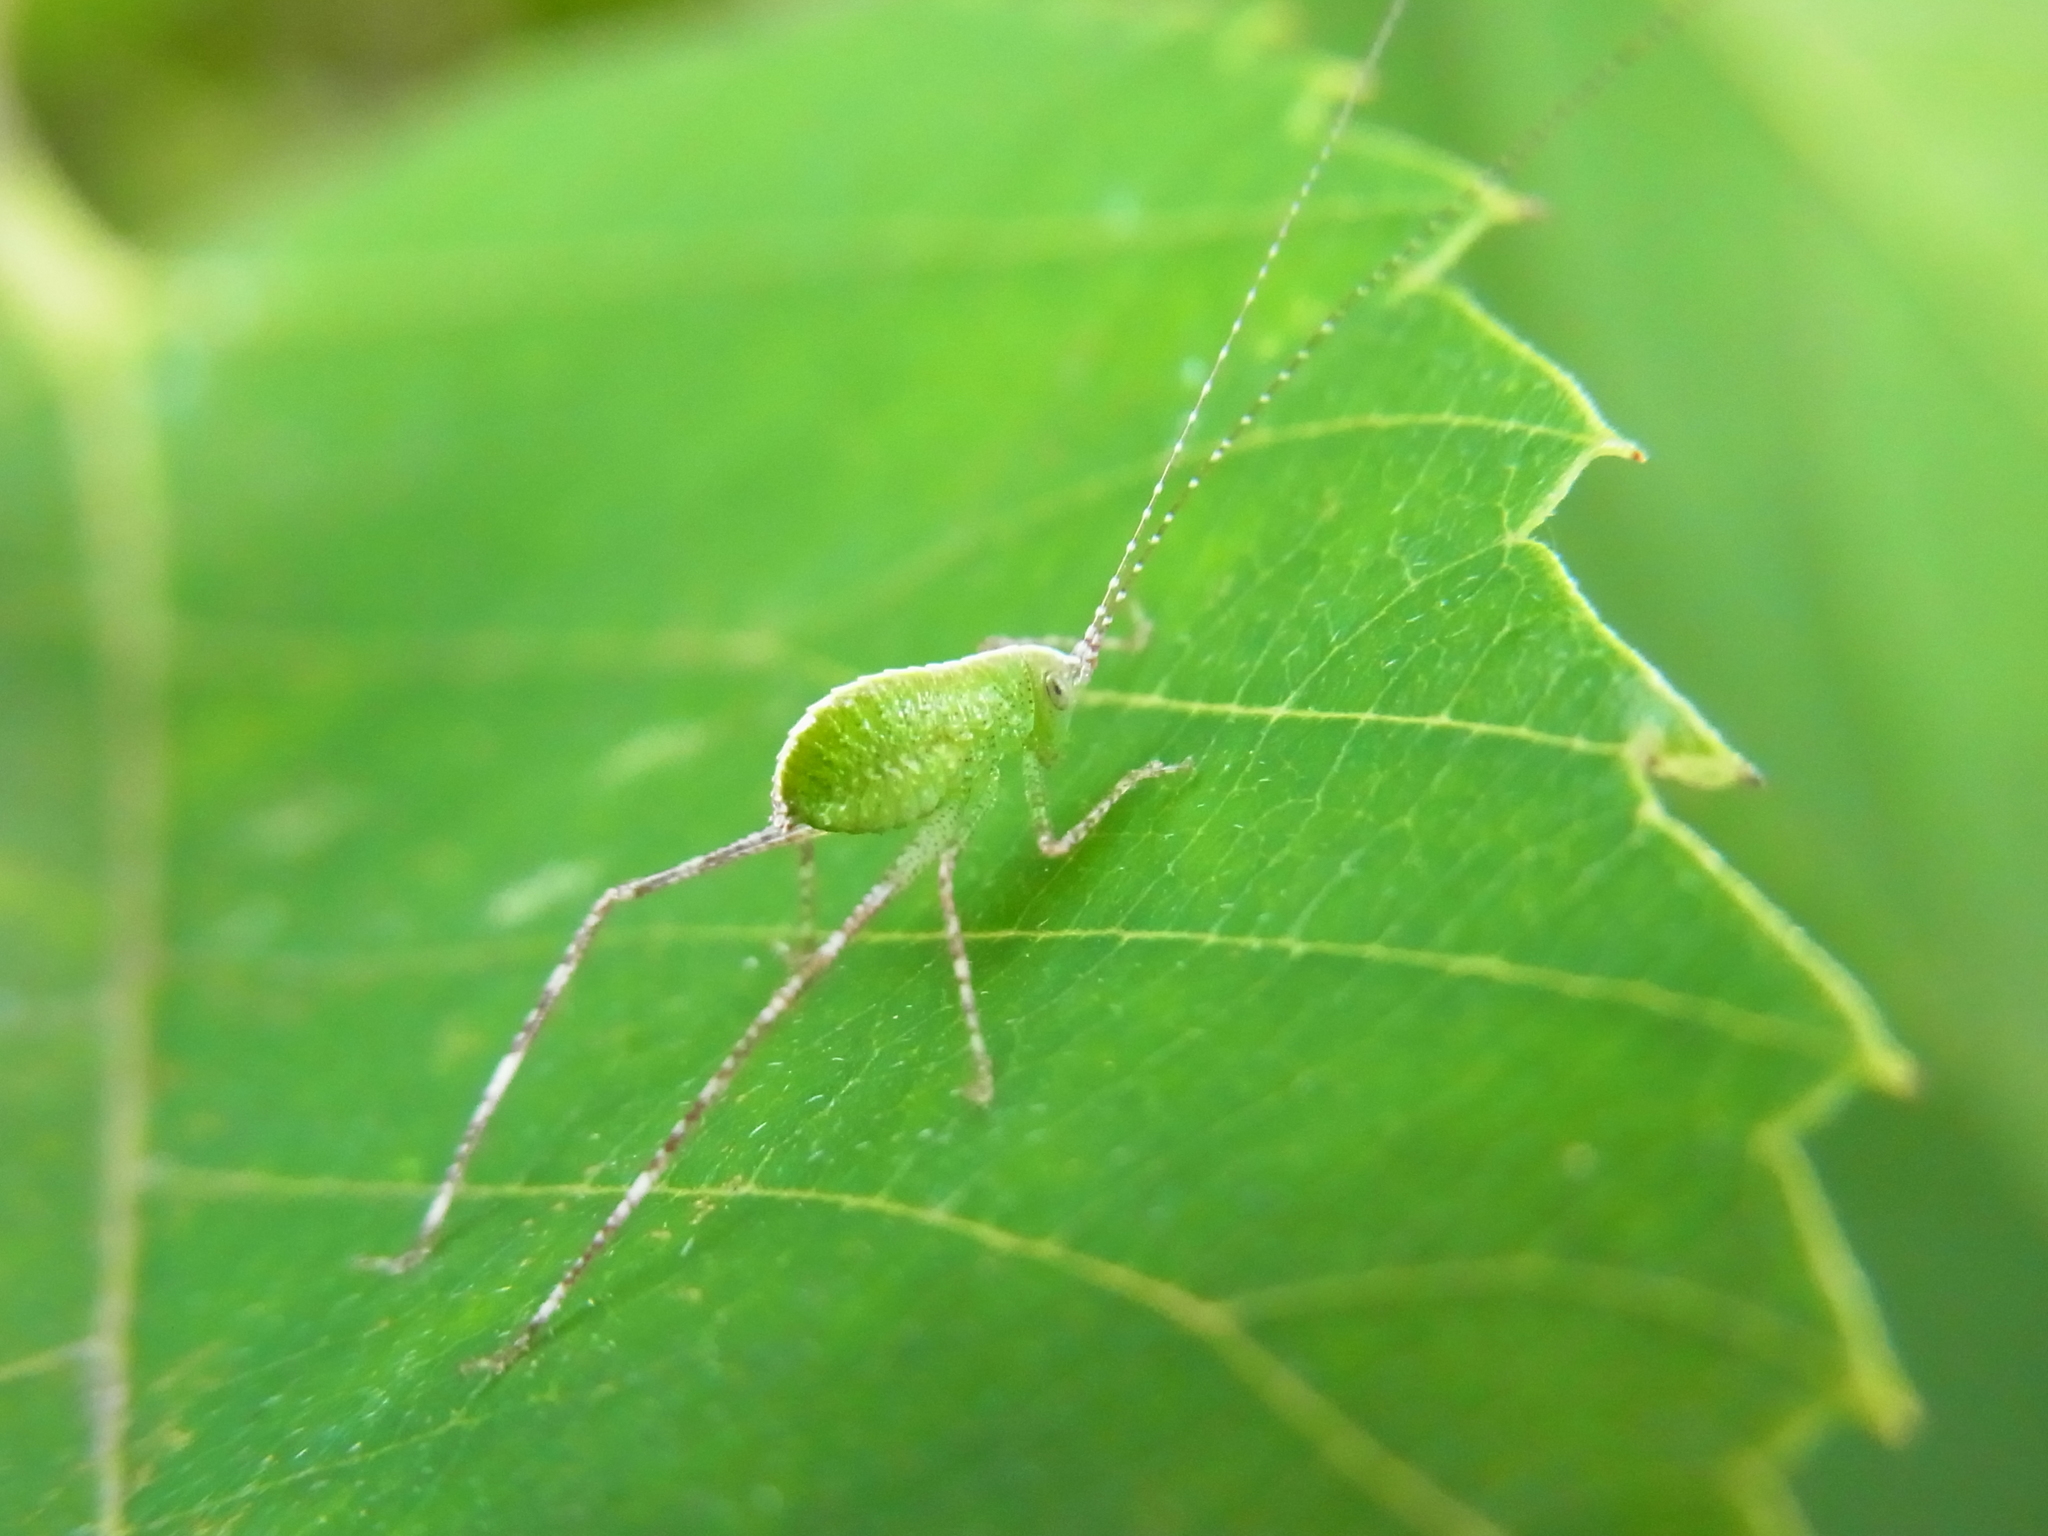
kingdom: Animalia
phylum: Arthropoda
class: Insecta
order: Orthoptera
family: Tettigoniidae
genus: Phaulula
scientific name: Phaulula macilenta
